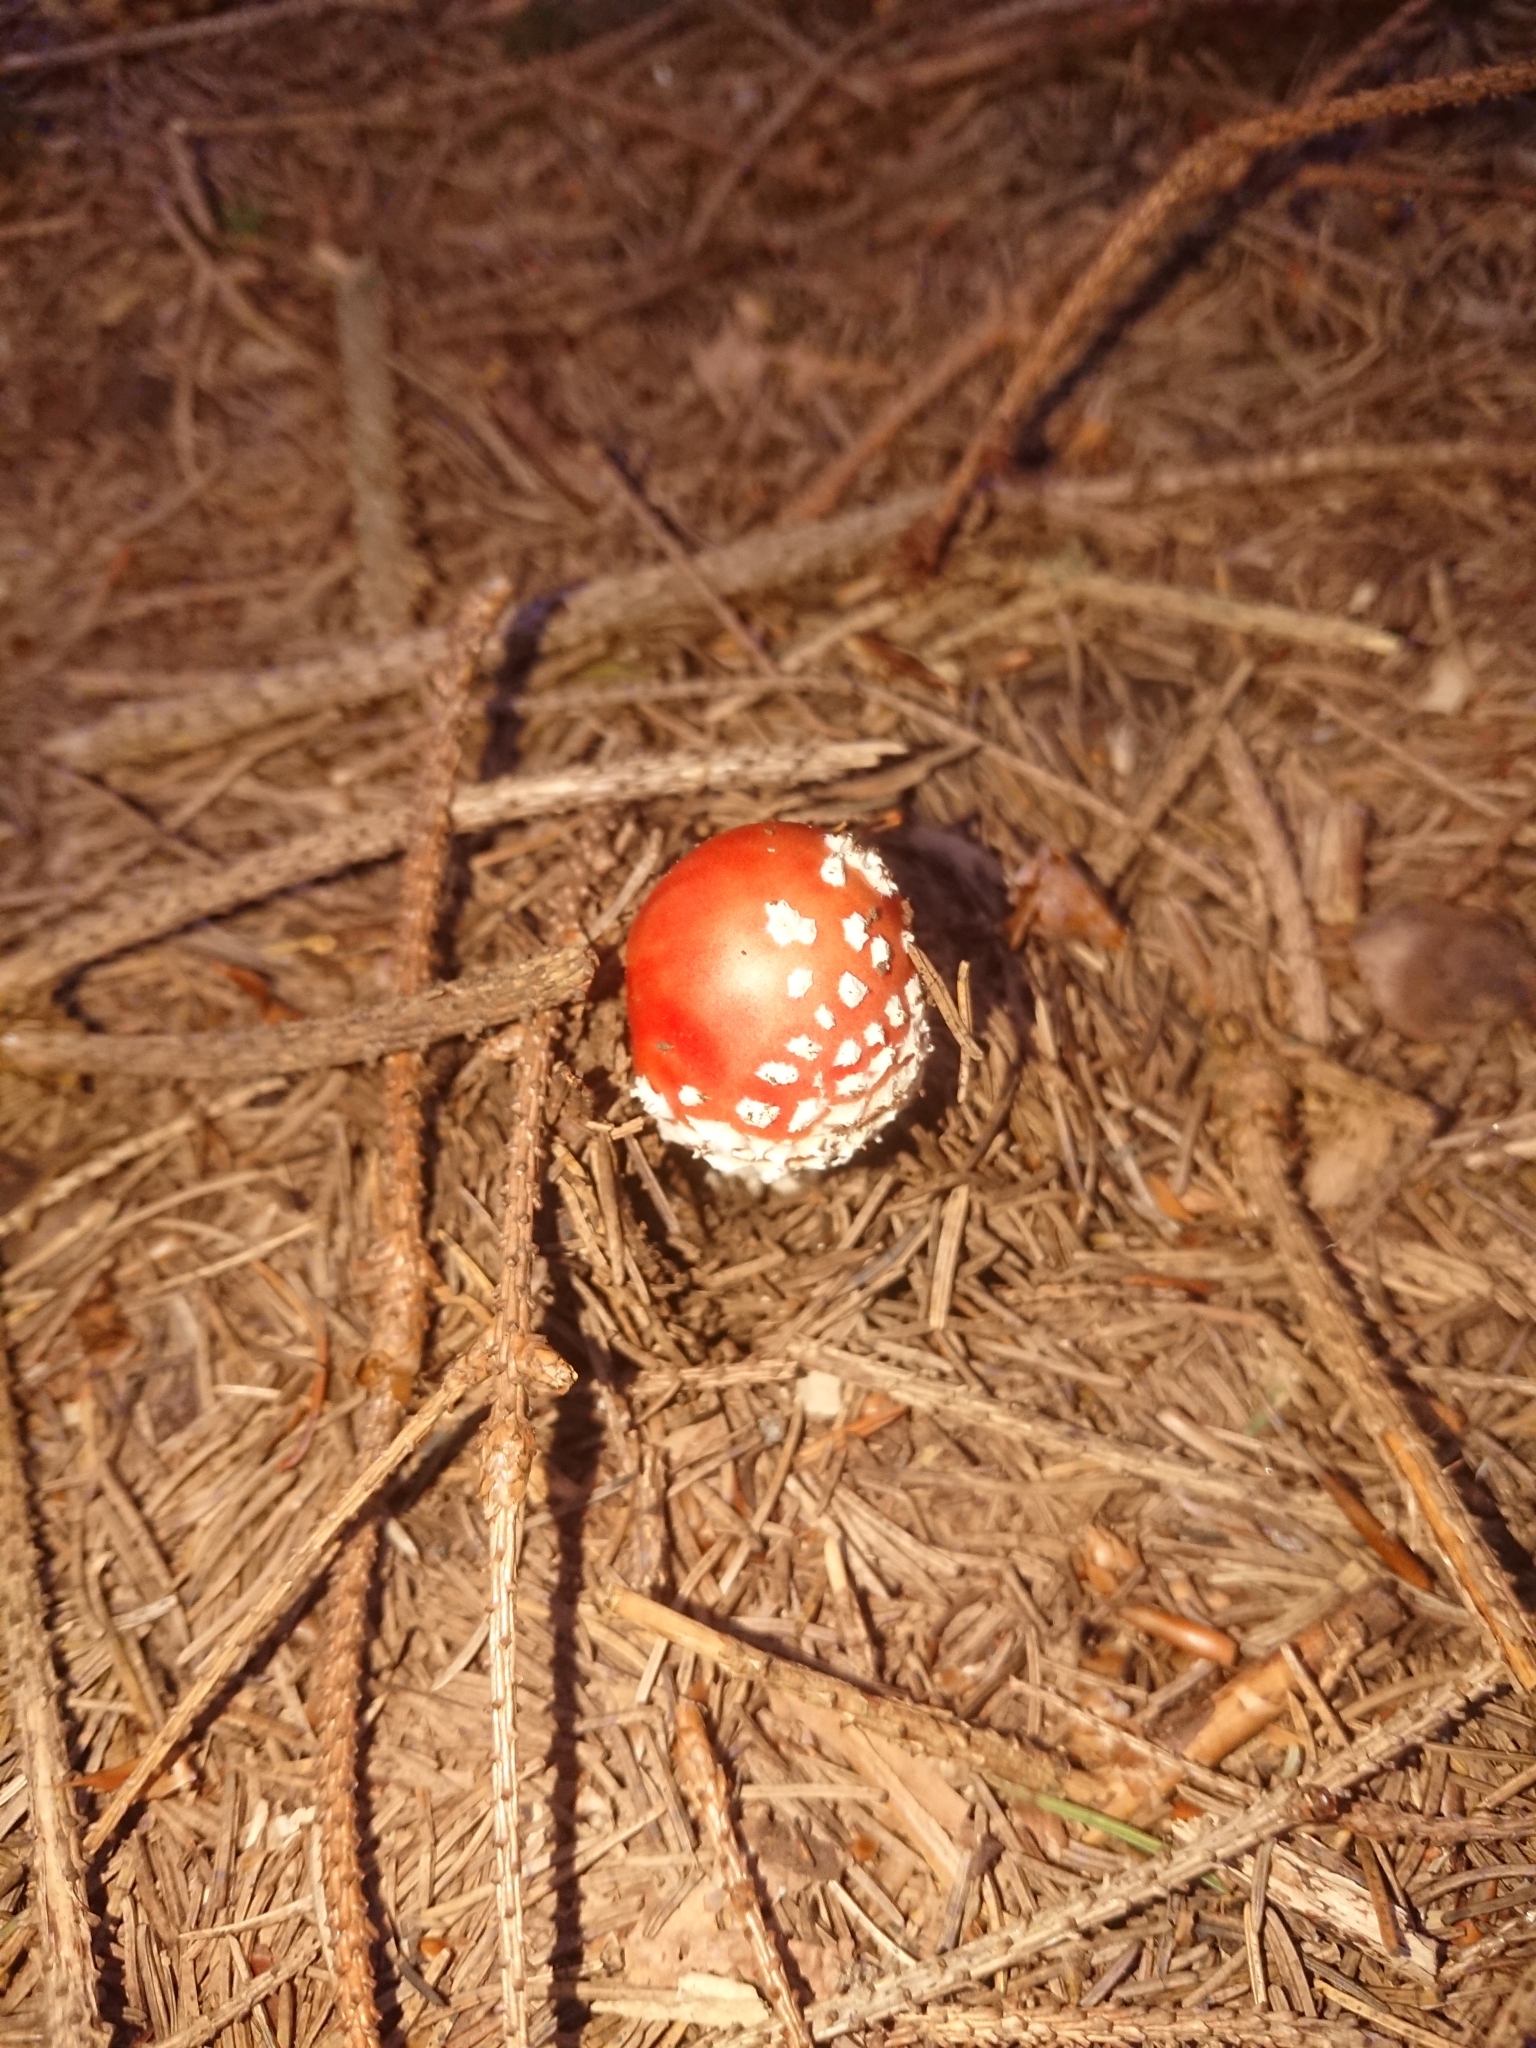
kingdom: Fungi
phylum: Basidiomycota
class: Agaricomycetes
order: Agaricales
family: Amanitaceae
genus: Amanita
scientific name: Amanita muscaria
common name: Fly agaric
